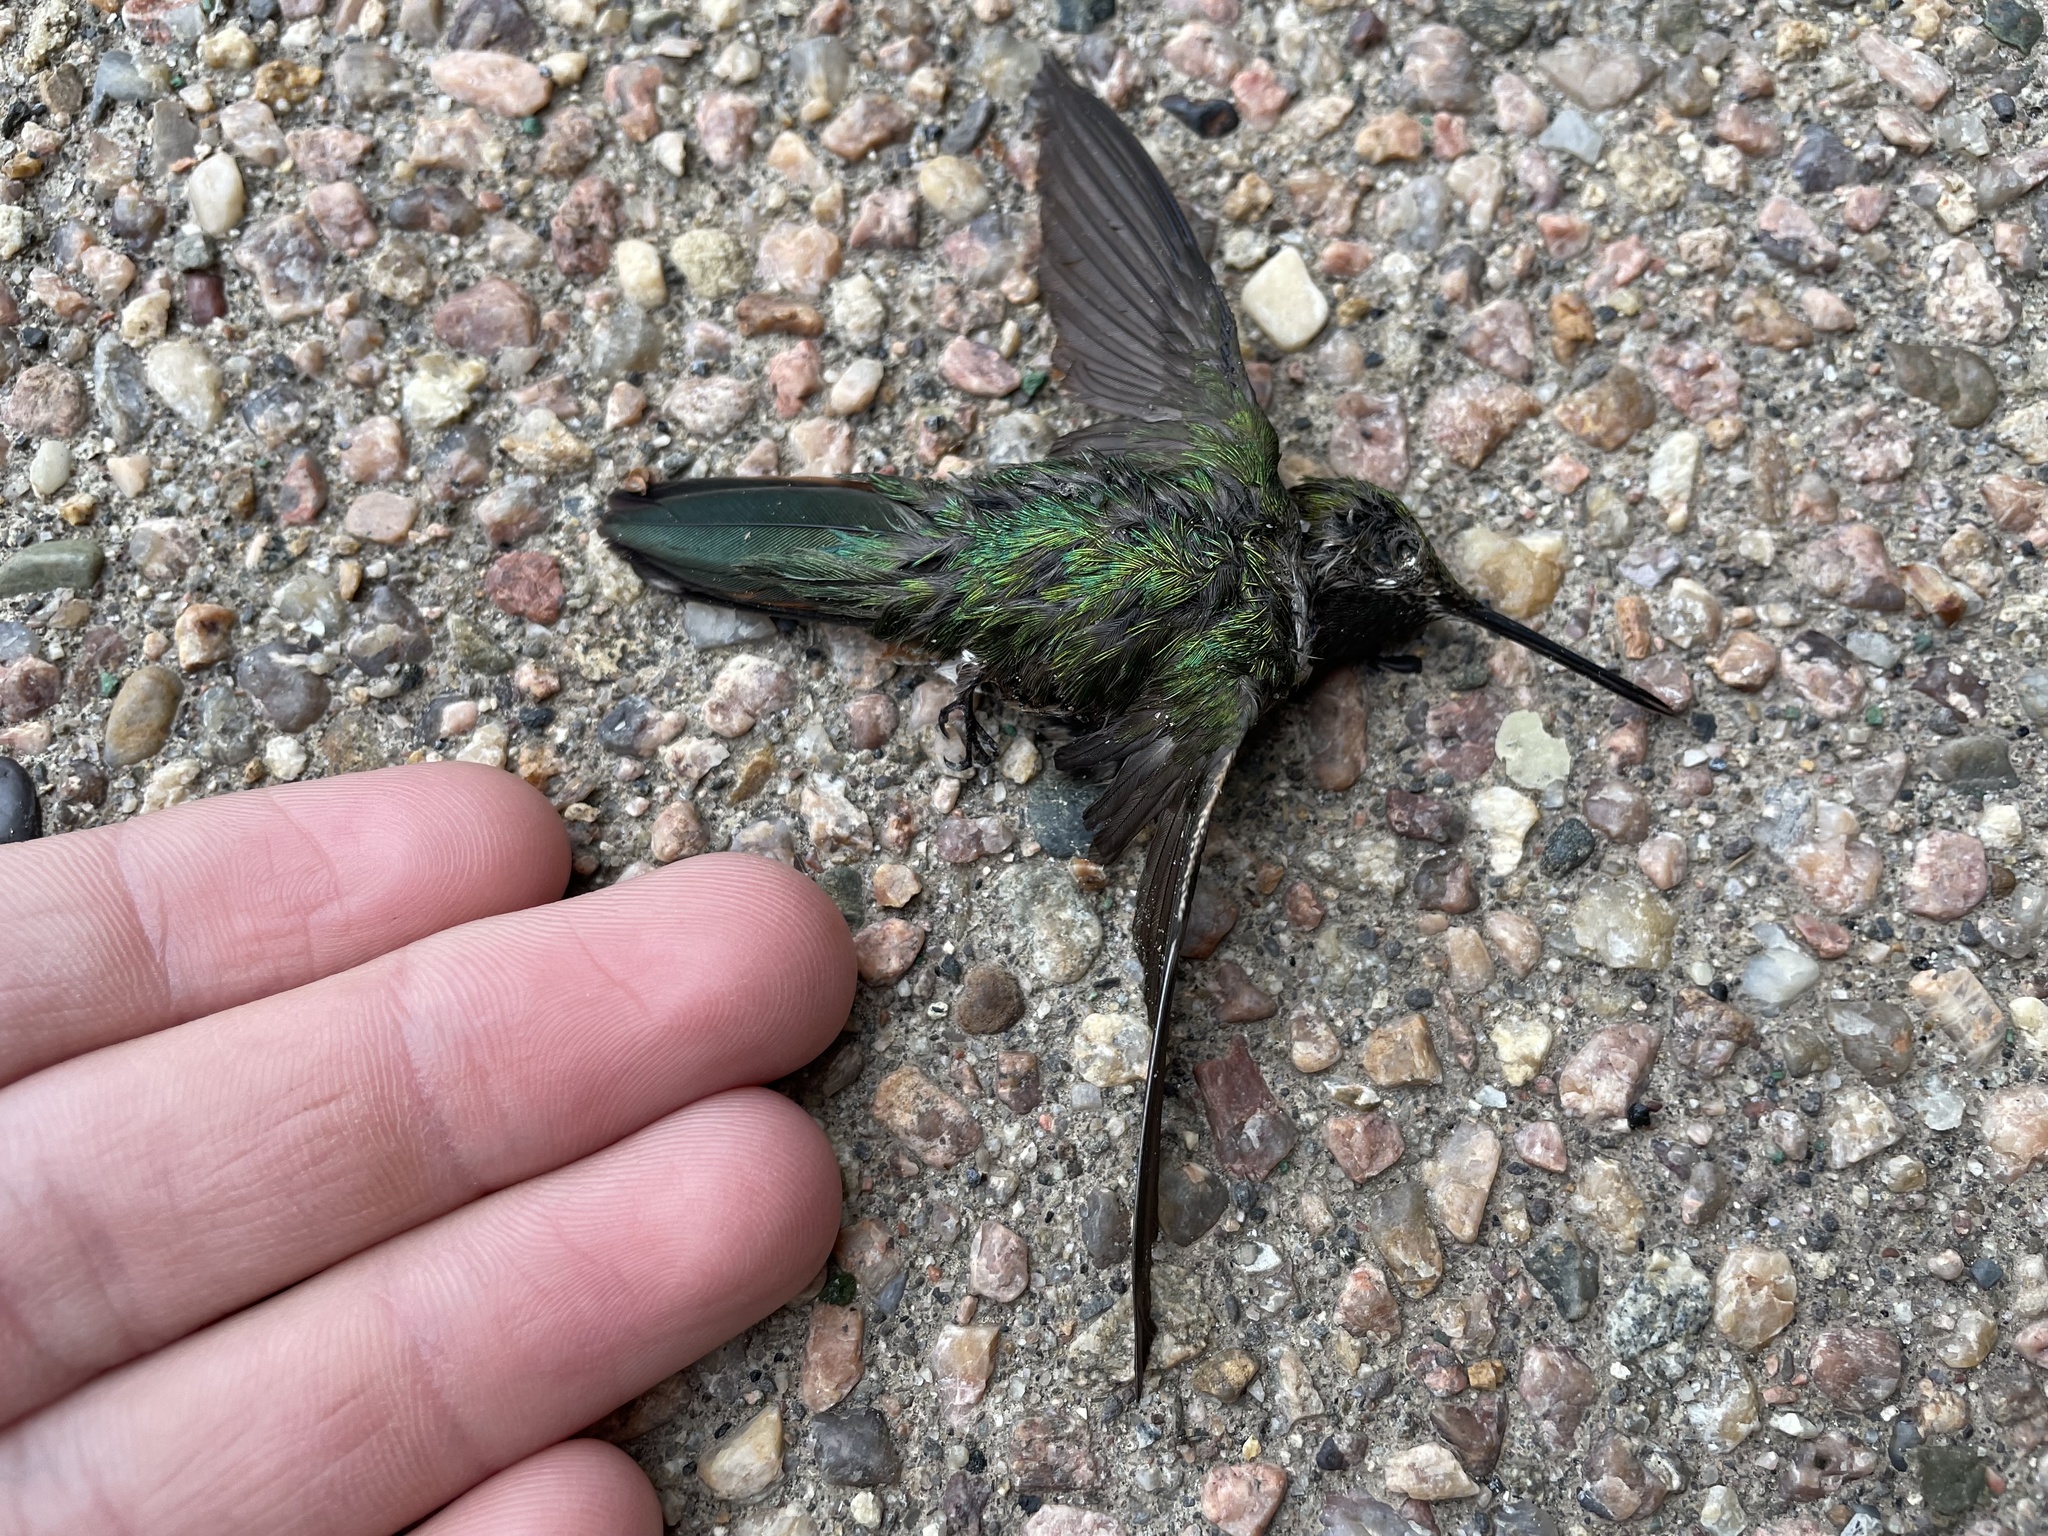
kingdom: Animalia
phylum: Chordata
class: Aves
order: Apodiformes
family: Trochilidae
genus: Selasphorus
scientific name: Selasphorus platycercus
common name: Broad-tailed hummingbird
